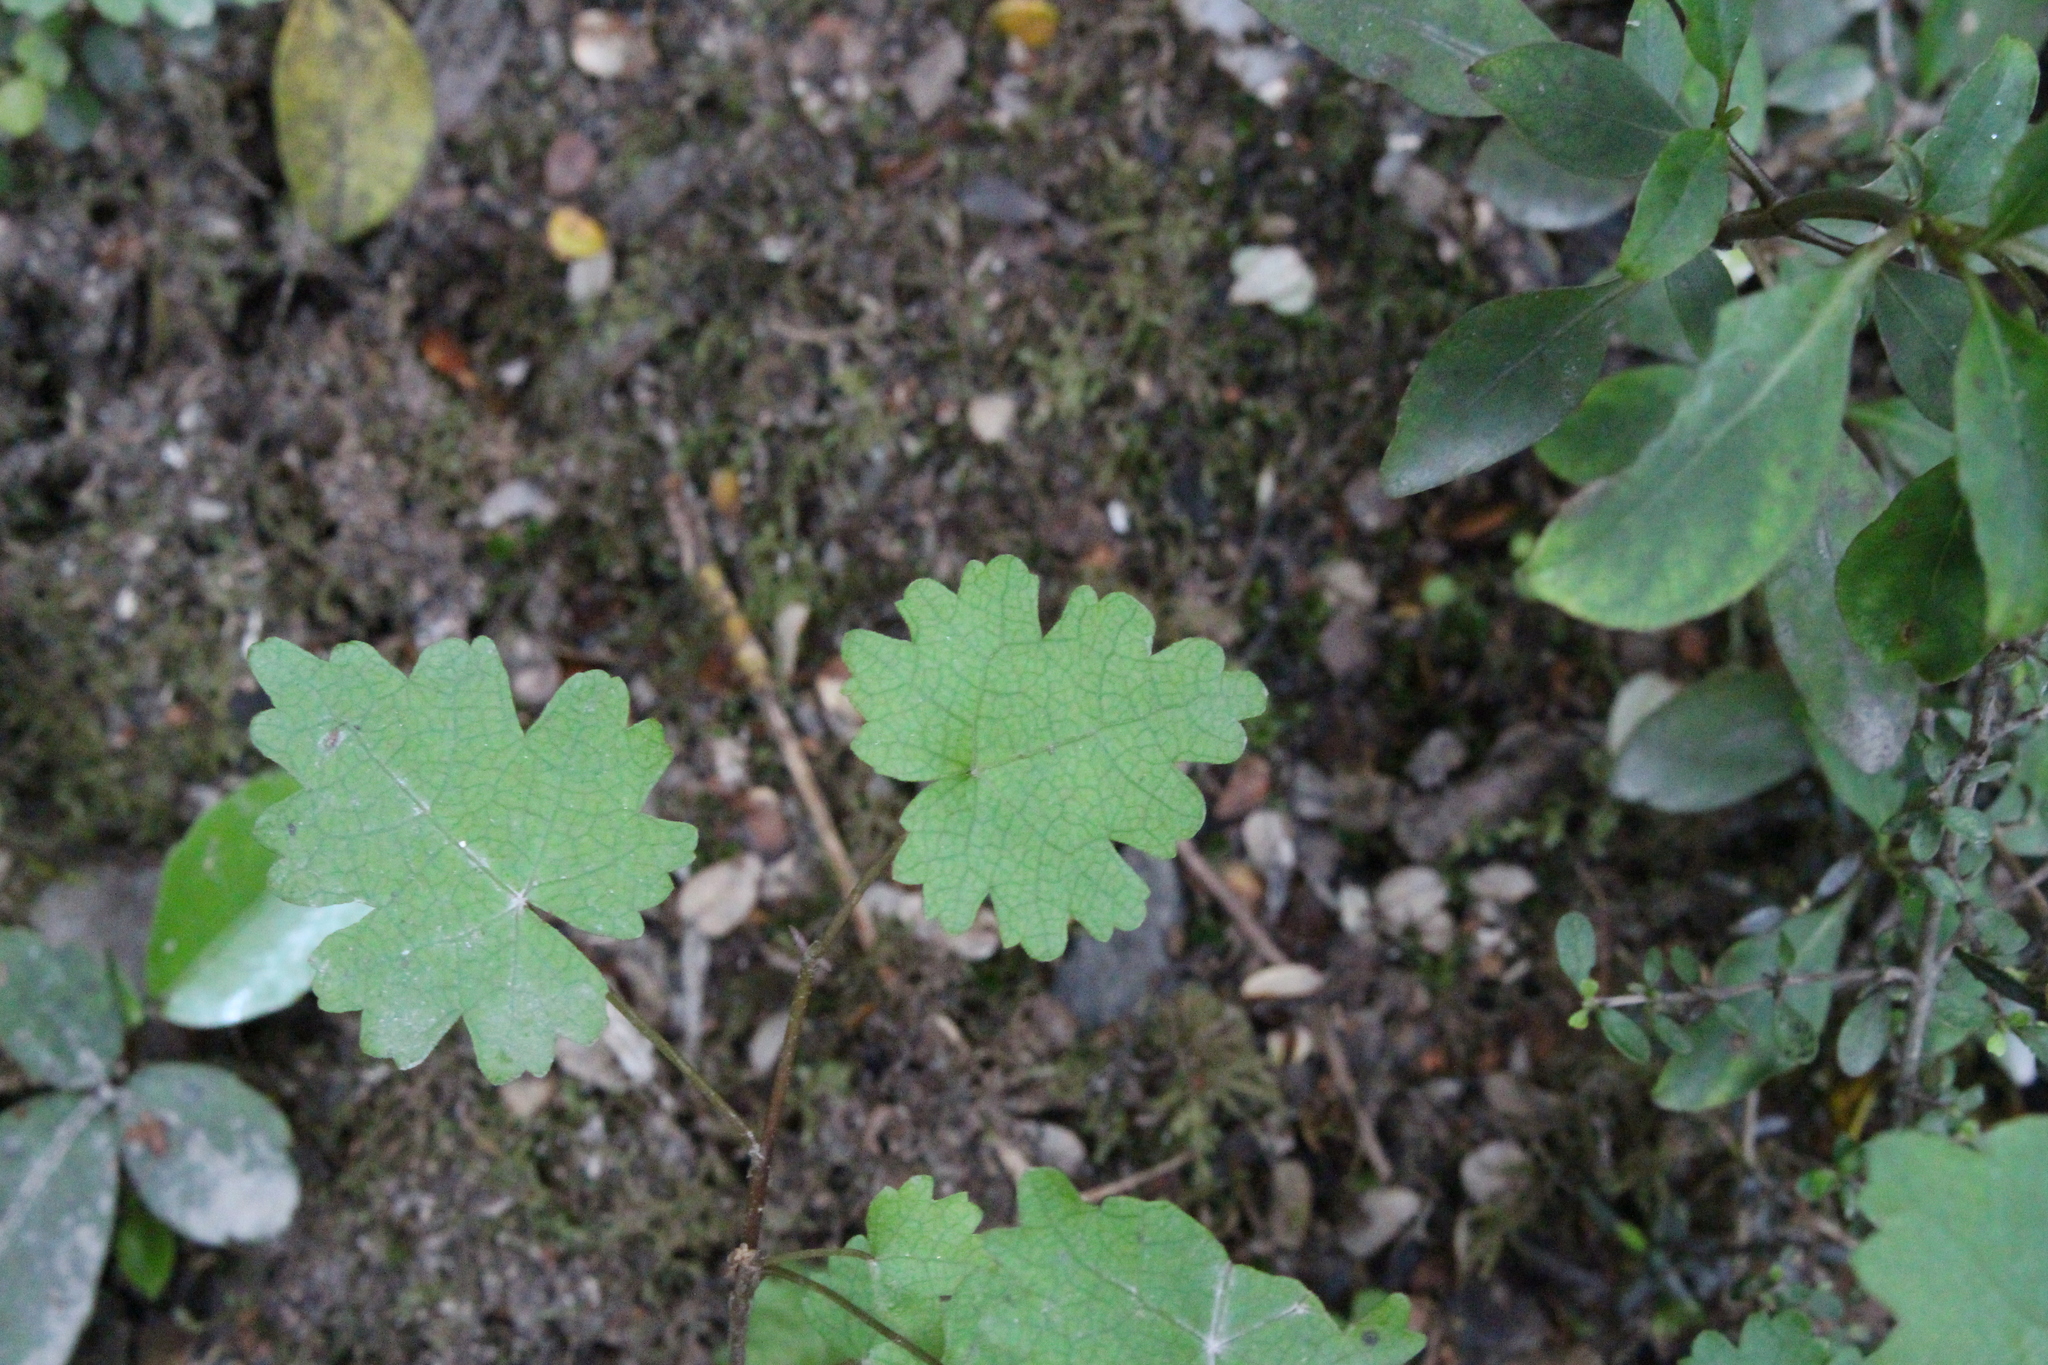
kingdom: Plantae
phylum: Tracheophyta
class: Magnoliopsida
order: Malvales
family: Malvaceae
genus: Hoheria
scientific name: Hoheria glabrata
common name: Mountain-ribbon
